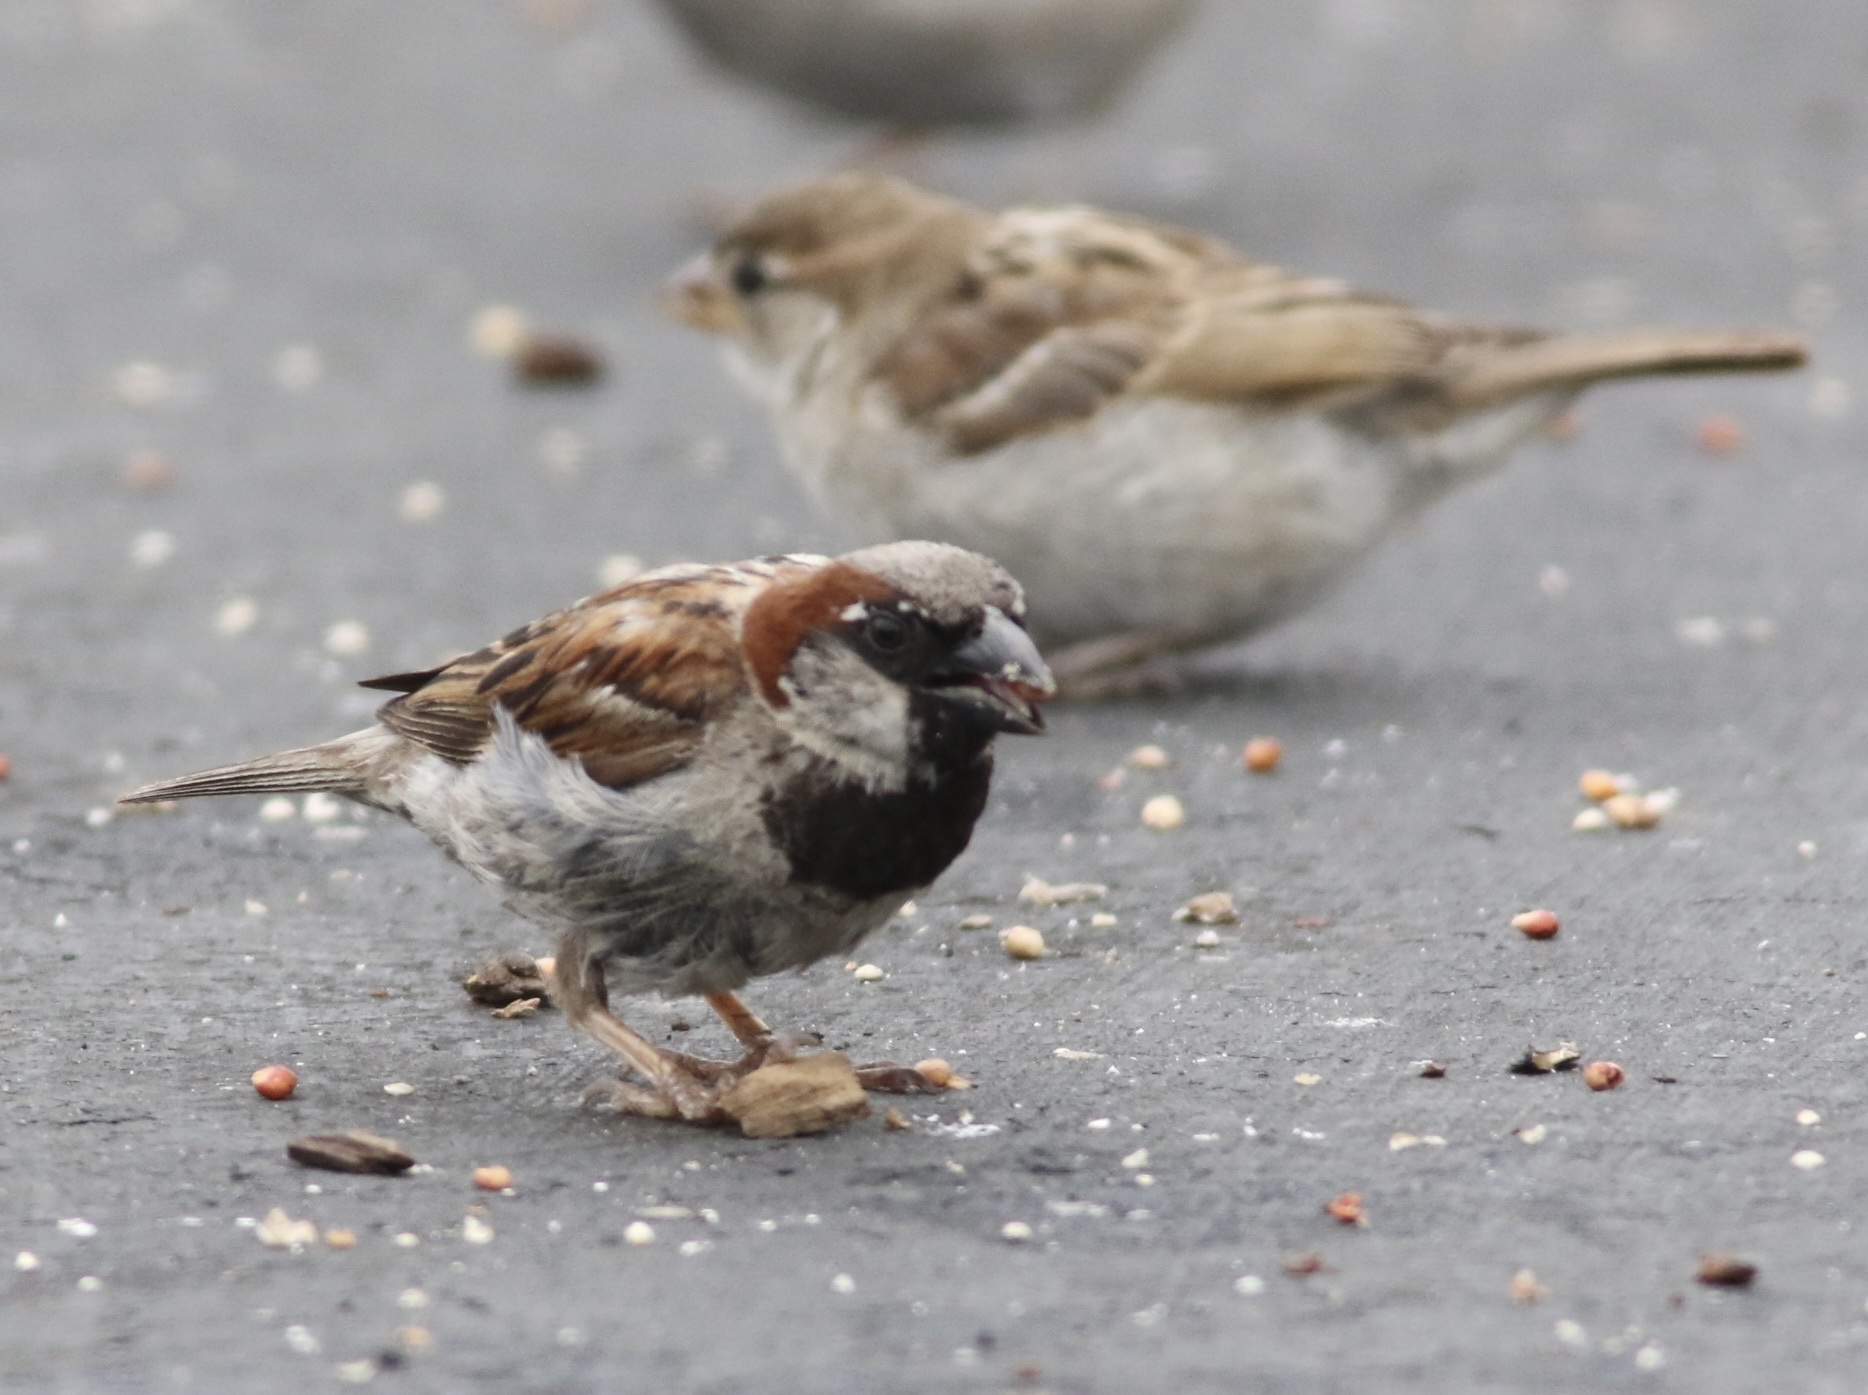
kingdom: Animalia
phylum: Chordata
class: Aves
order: Passeriformes
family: Passeridae
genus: Passer
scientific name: Passer domesticus
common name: House sparrow
